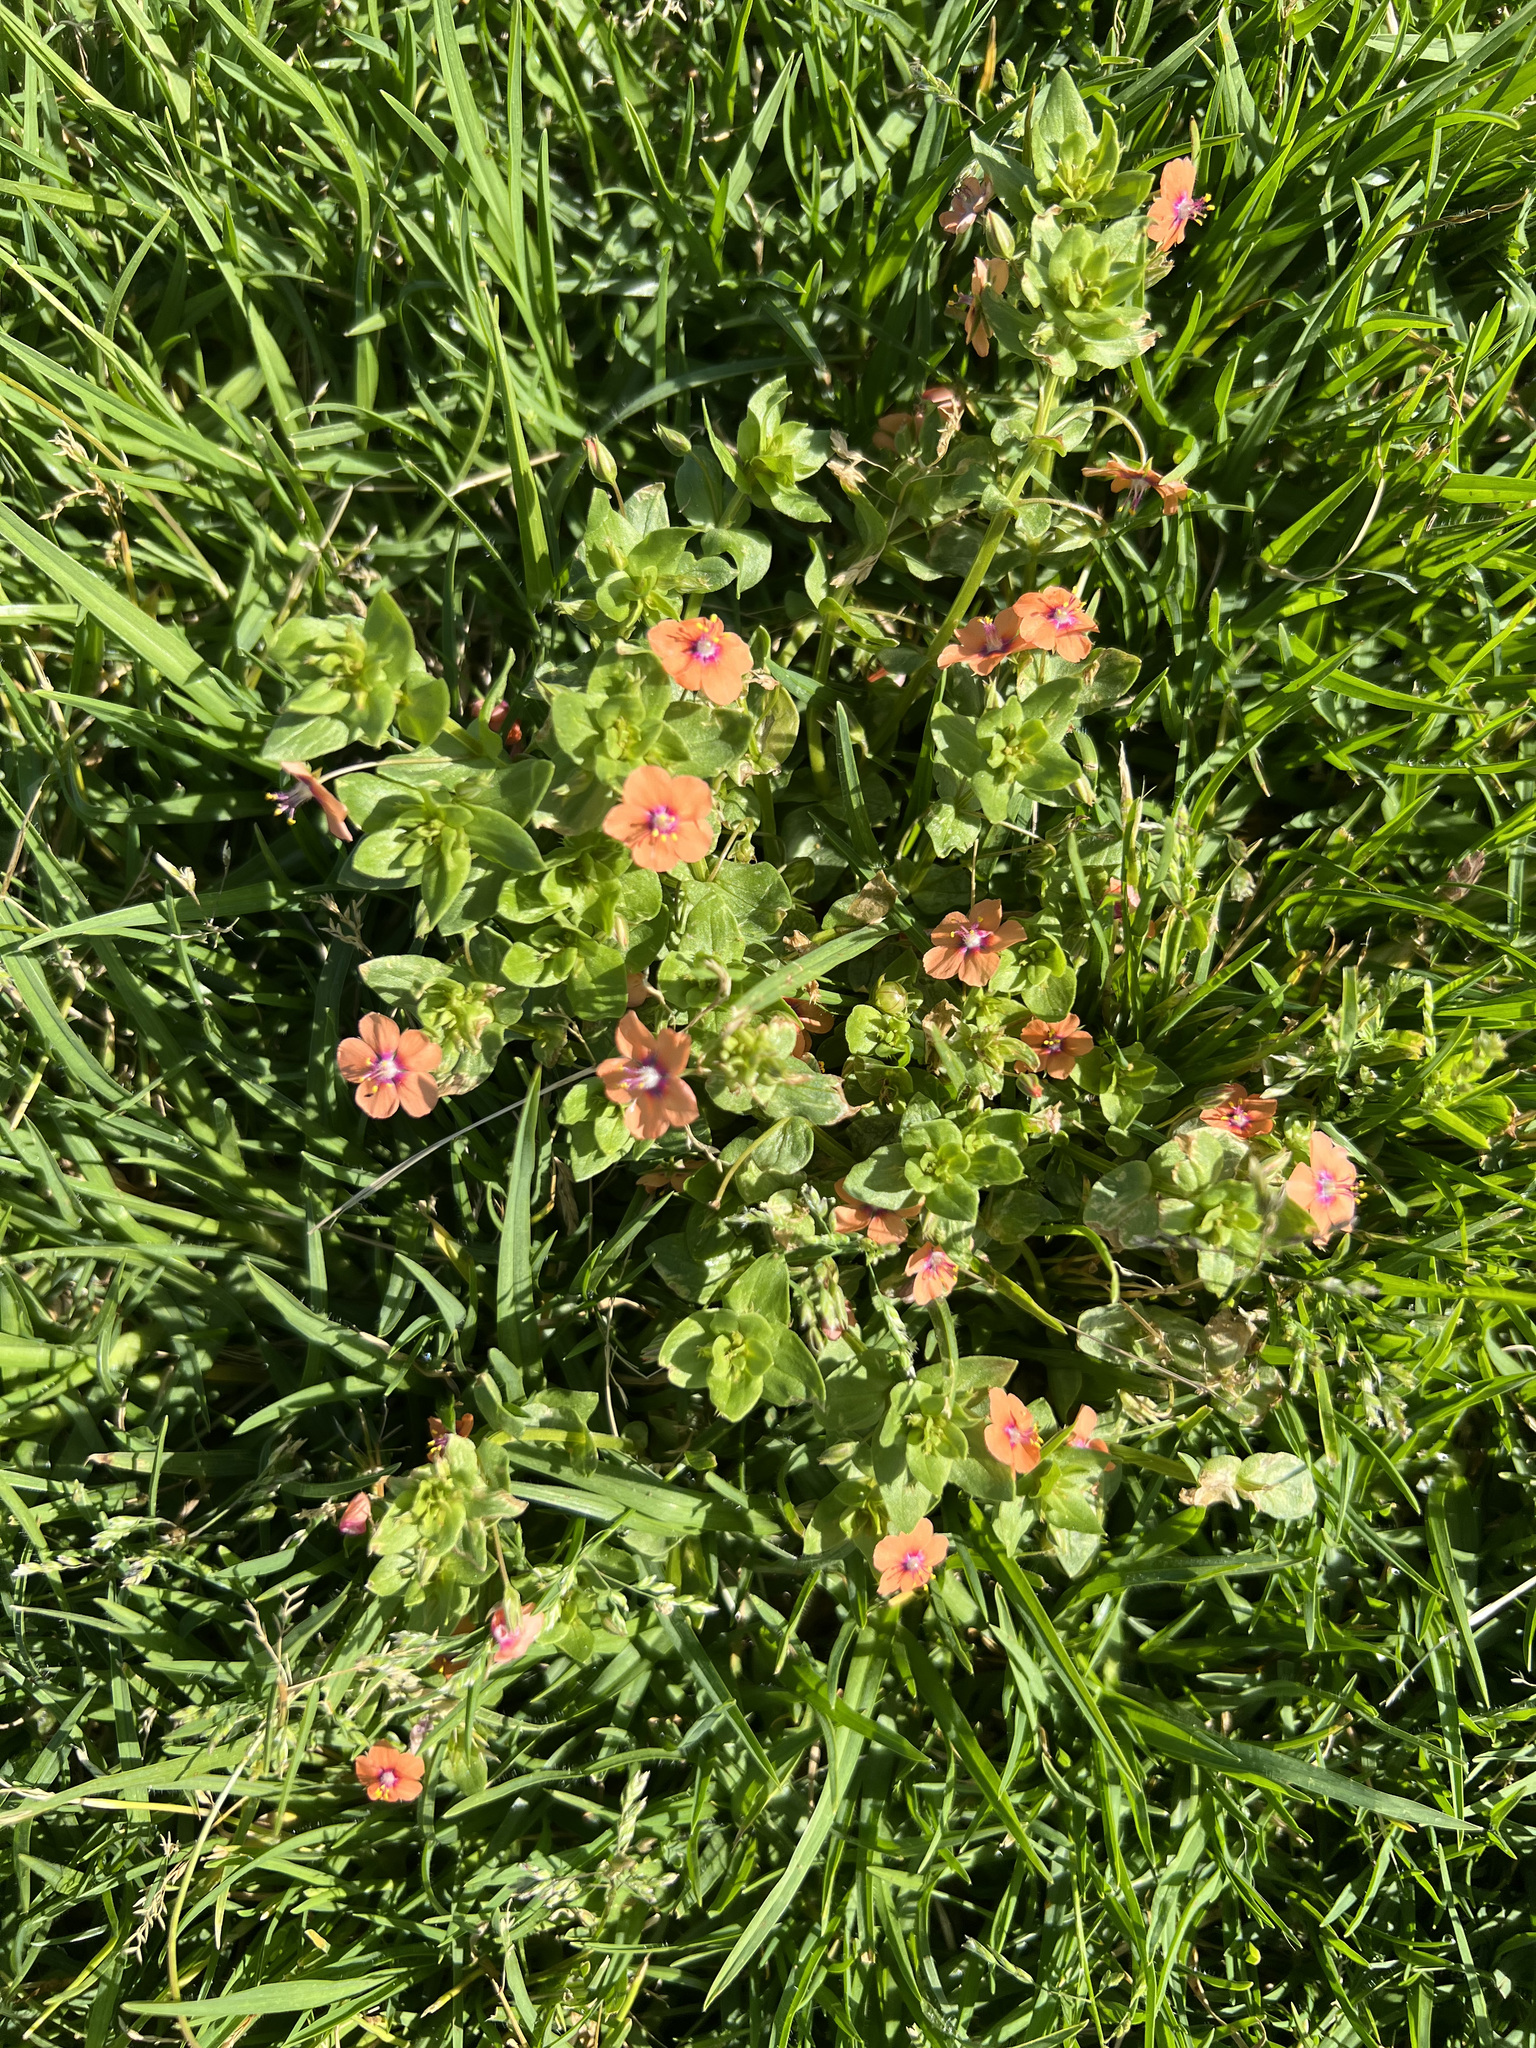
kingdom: Plantae
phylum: Tracheophyta
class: Magnoliopsida
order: Ericales
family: Primulaceae
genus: Lysimachia
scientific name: Lysimachia arvensis
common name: Scarlet pimpernel
